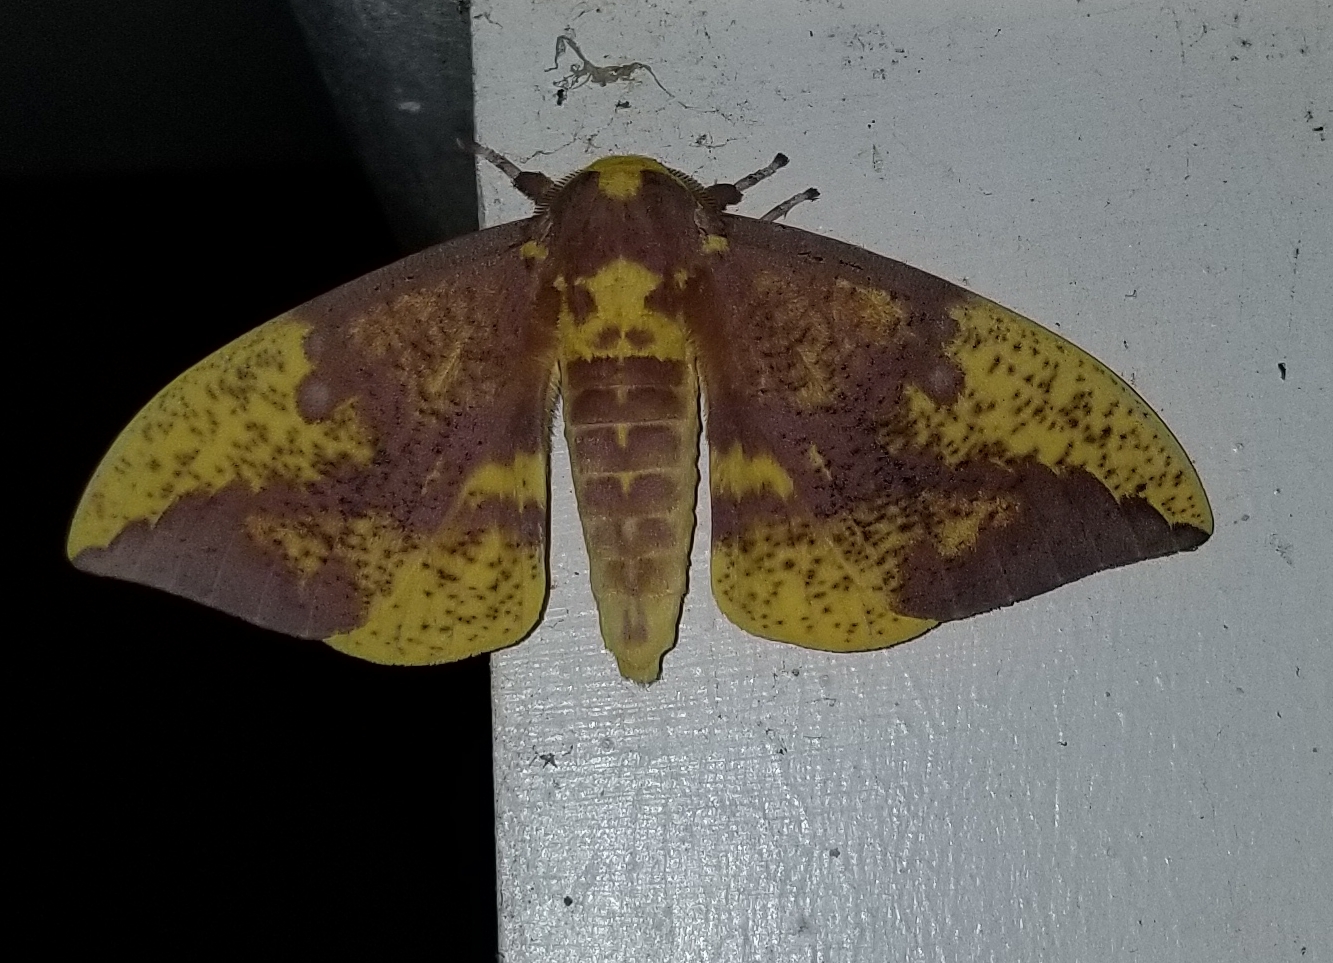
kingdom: Animalia
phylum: Arthropoda
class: Insecta
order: Lepidoptera
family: Saturniidae
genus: Eacles
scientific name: Eacles imperialis
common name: Imperial moth
